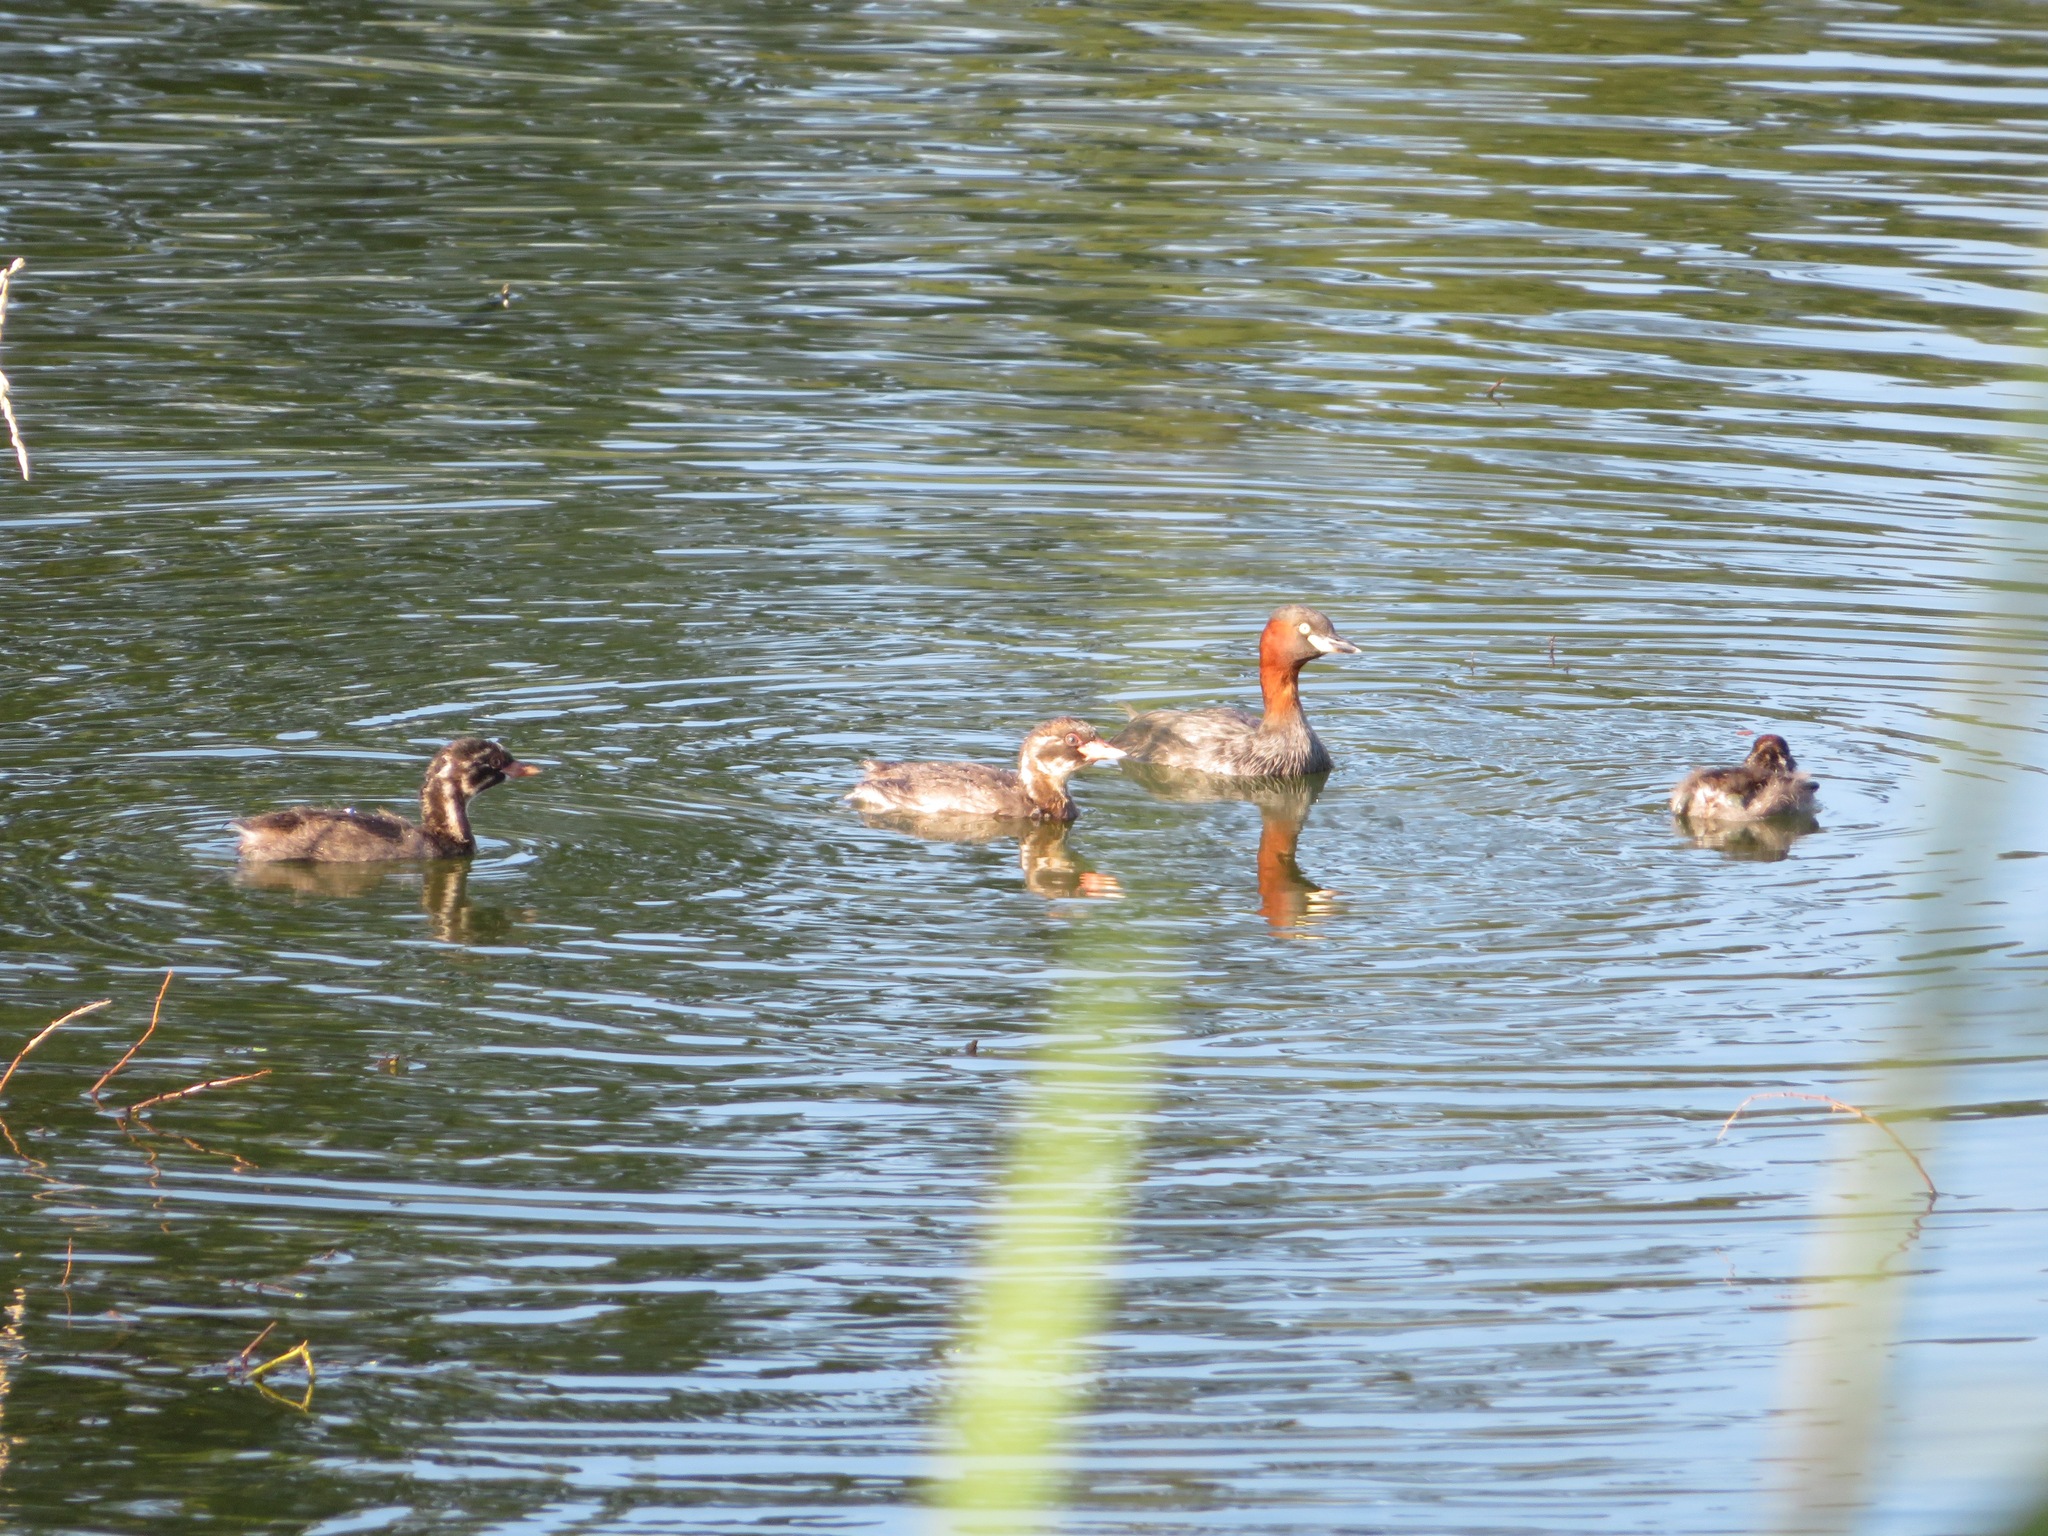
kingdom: Animalia
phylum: Chordata
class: Aves
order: Podicipediformes
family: Podicipedidae
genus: Tachybaptus
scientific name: Tachybaptus ruficollis
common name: Little grebe
